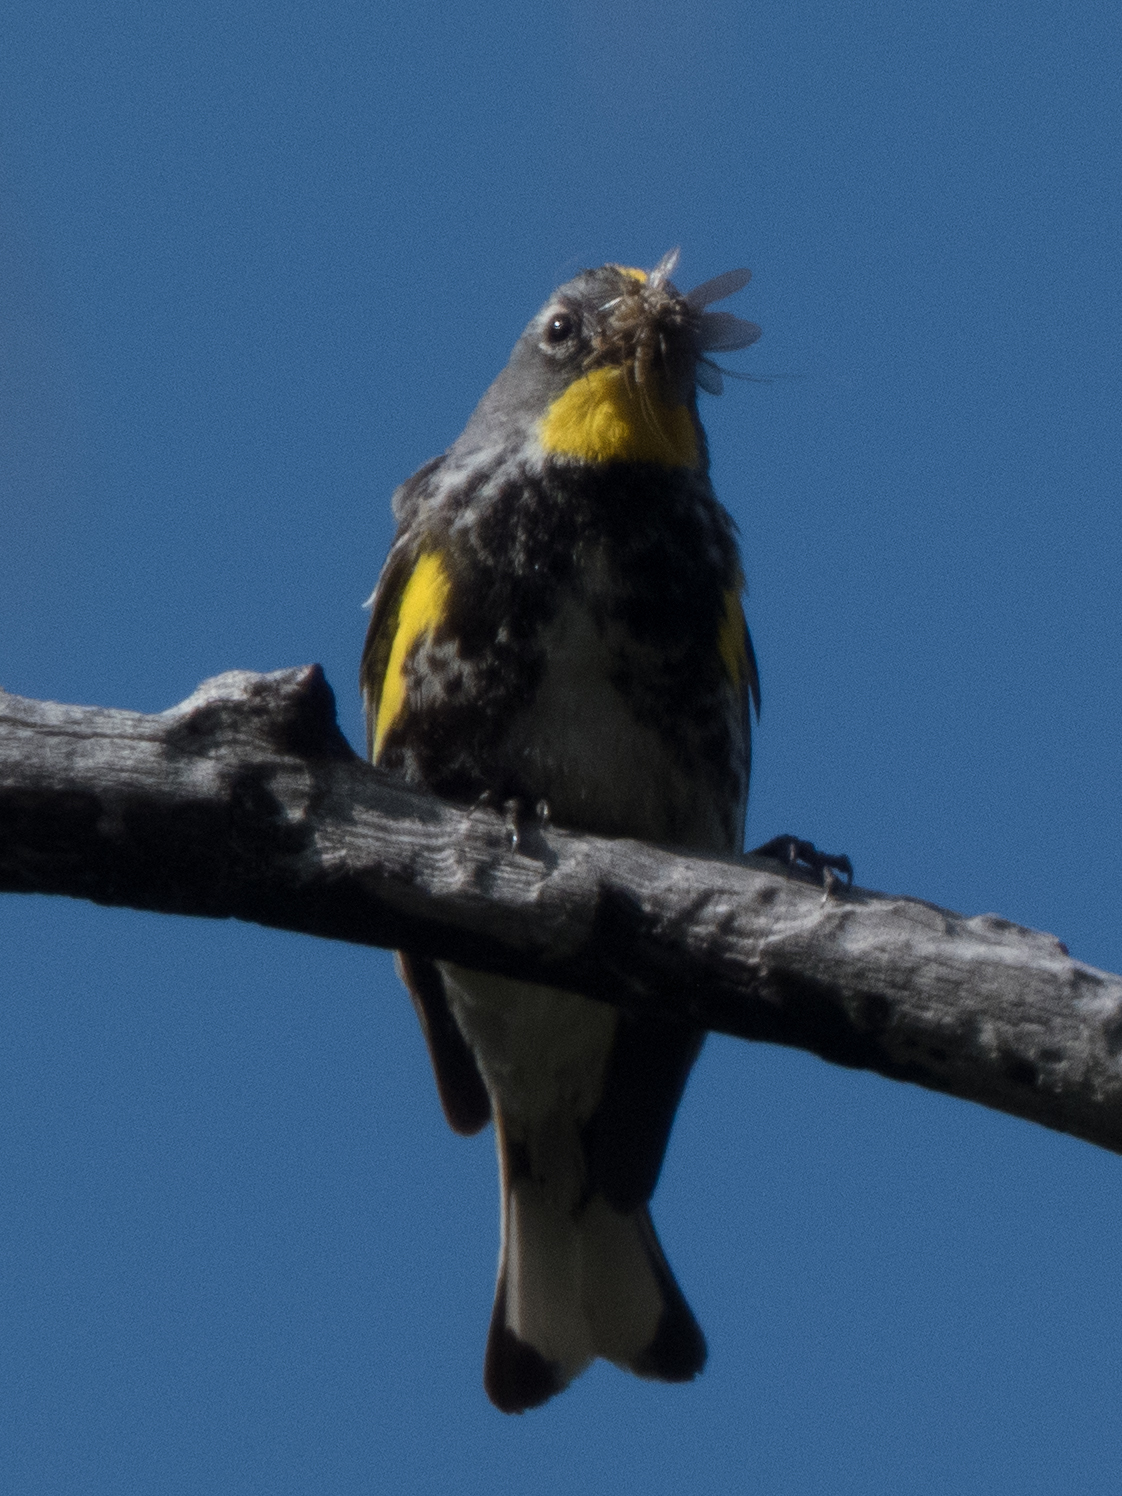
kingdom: Animalia
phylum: Chordata
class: Aves
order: Passeriformes
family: Parulidae
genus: Setophaga
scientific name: Setophaga auduboni
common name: Audubon's warbler
